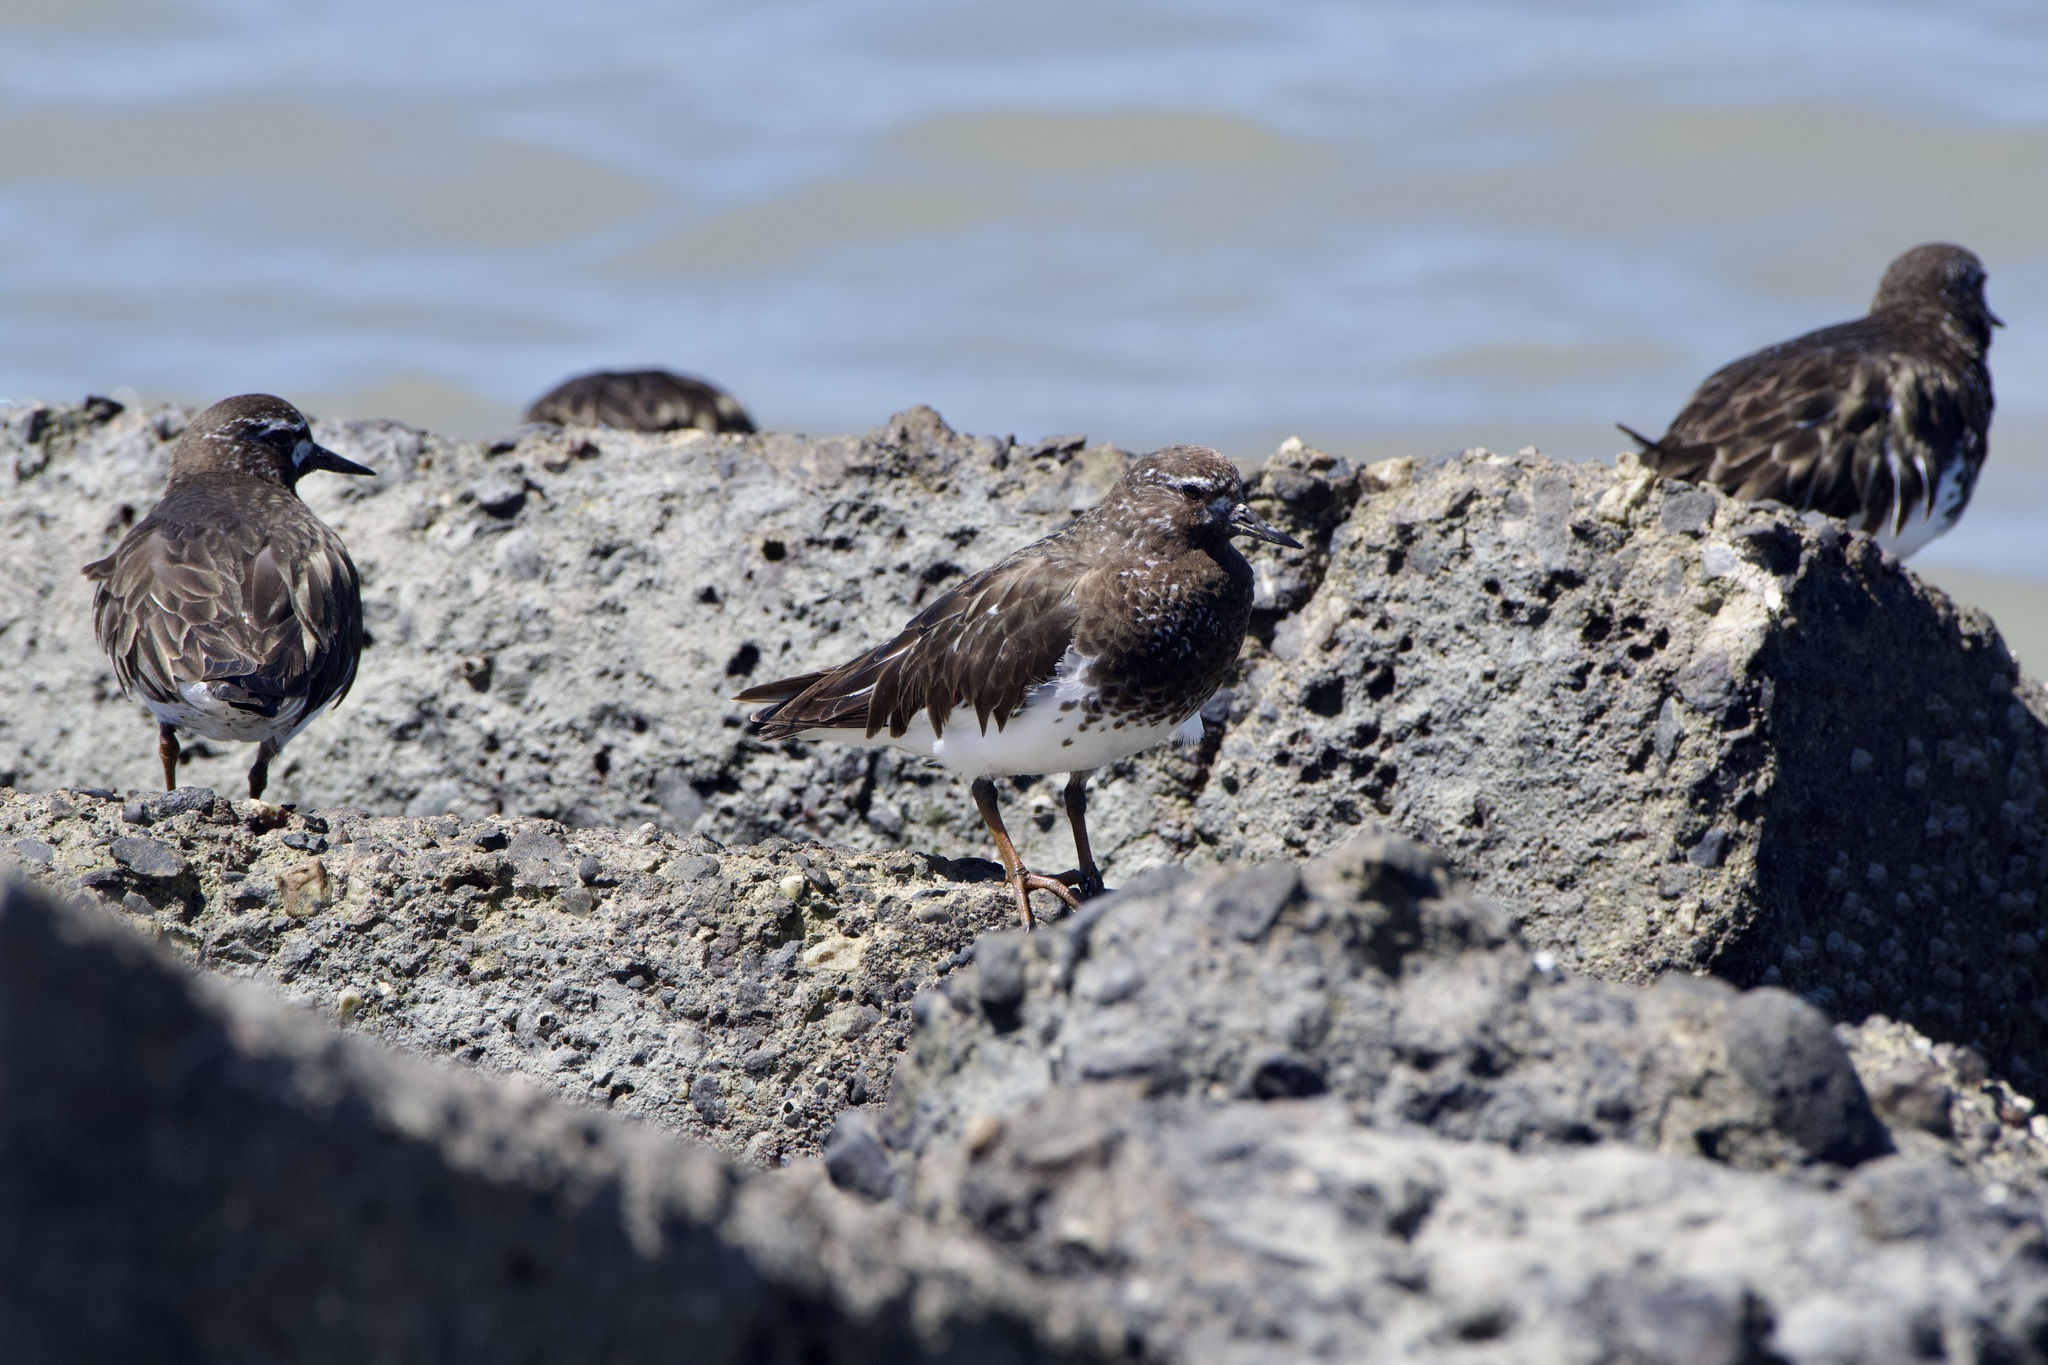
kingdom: Animalia
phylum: Chordata
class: Aves
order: Charadriiformes
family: Scolopacidae
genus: Arenaria
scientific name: Arenaria melanocephala
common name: Black turnstone
